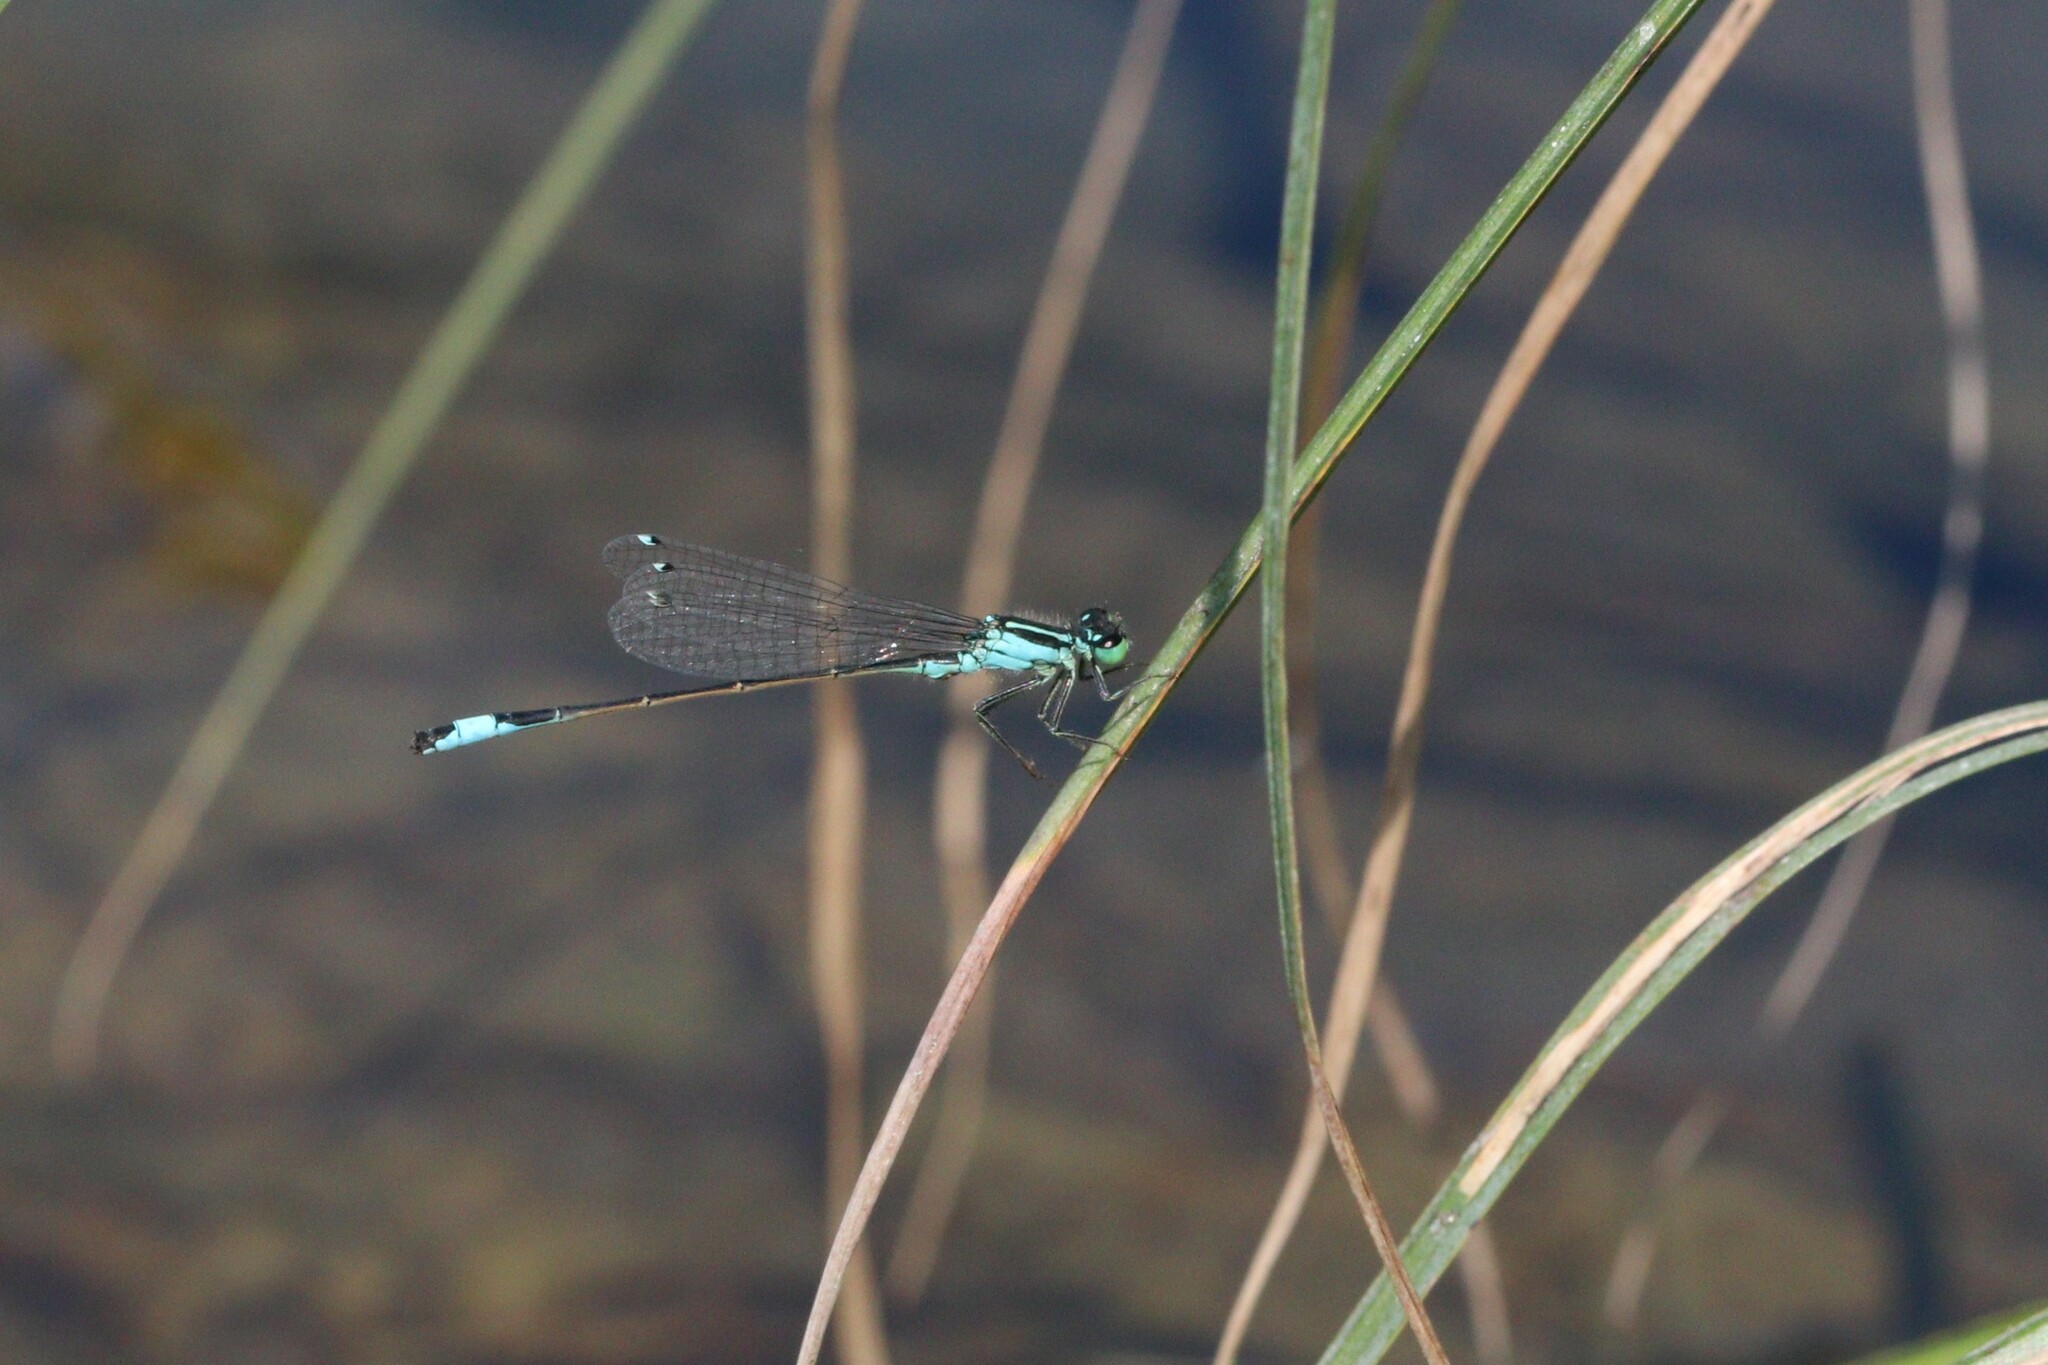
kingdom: Animalia
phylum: Arthropoda
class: Insecta
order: Odonata
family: Coenagrionidae
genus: Ischnura
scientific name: Ischnura elegans
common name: Blue-tailed damselfly
